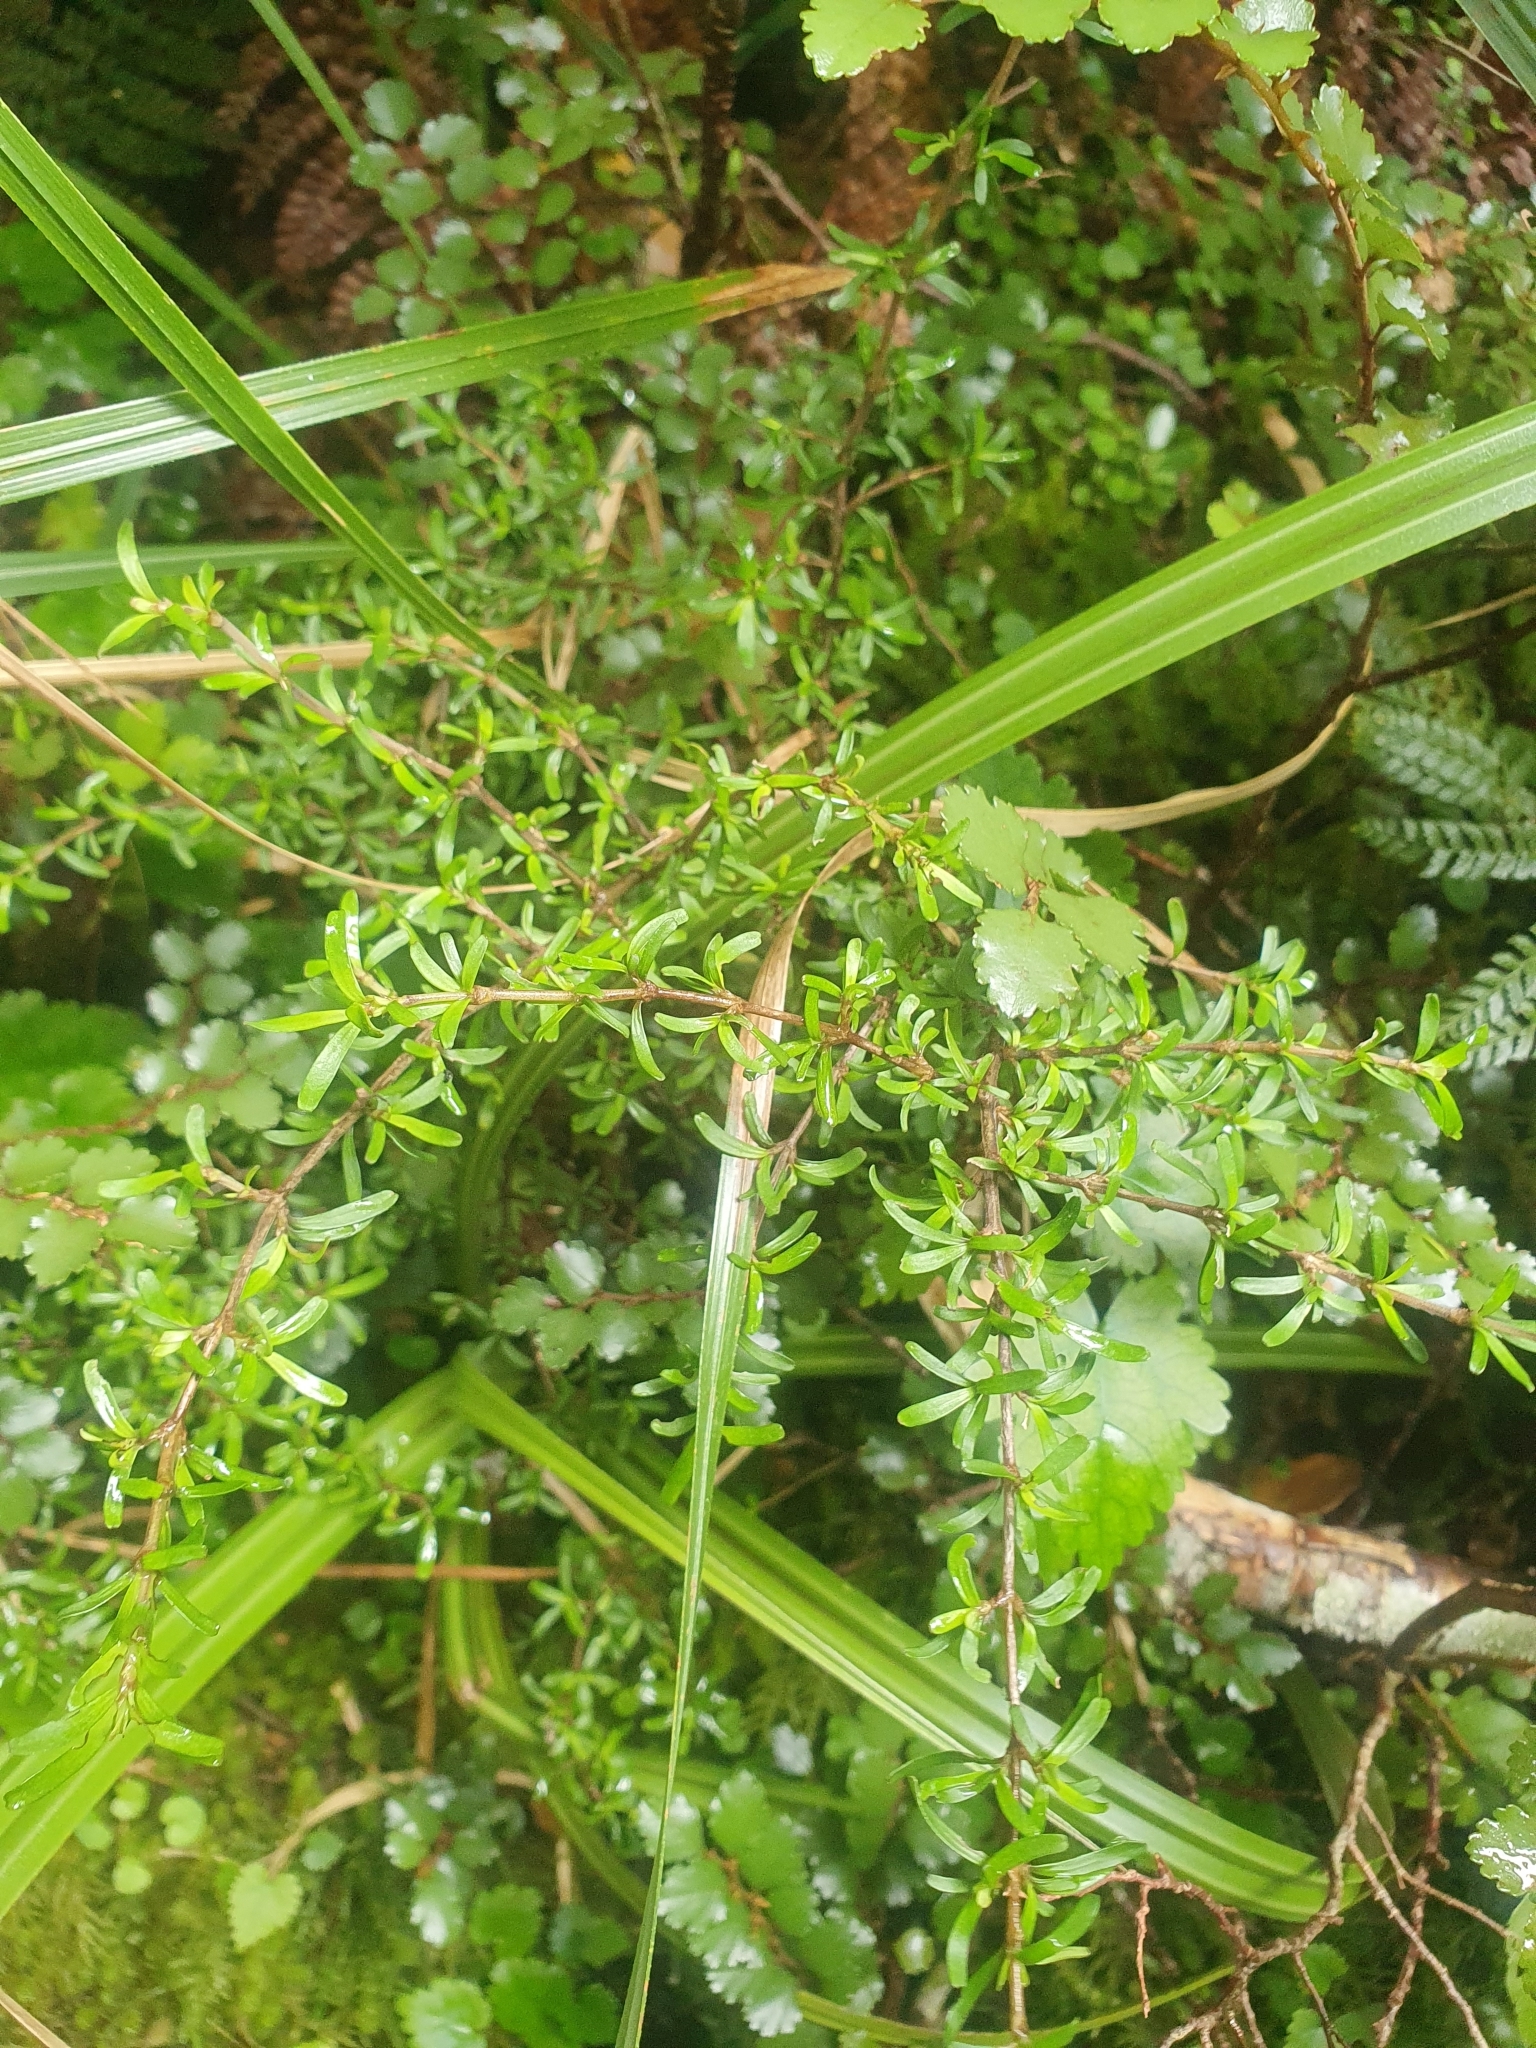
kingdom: Plantae
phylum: Tracheophyta
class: Magnoliopsida
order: Gentianales
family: Rubiaceae
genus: Coprosma
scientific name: Coprosma cuneata
